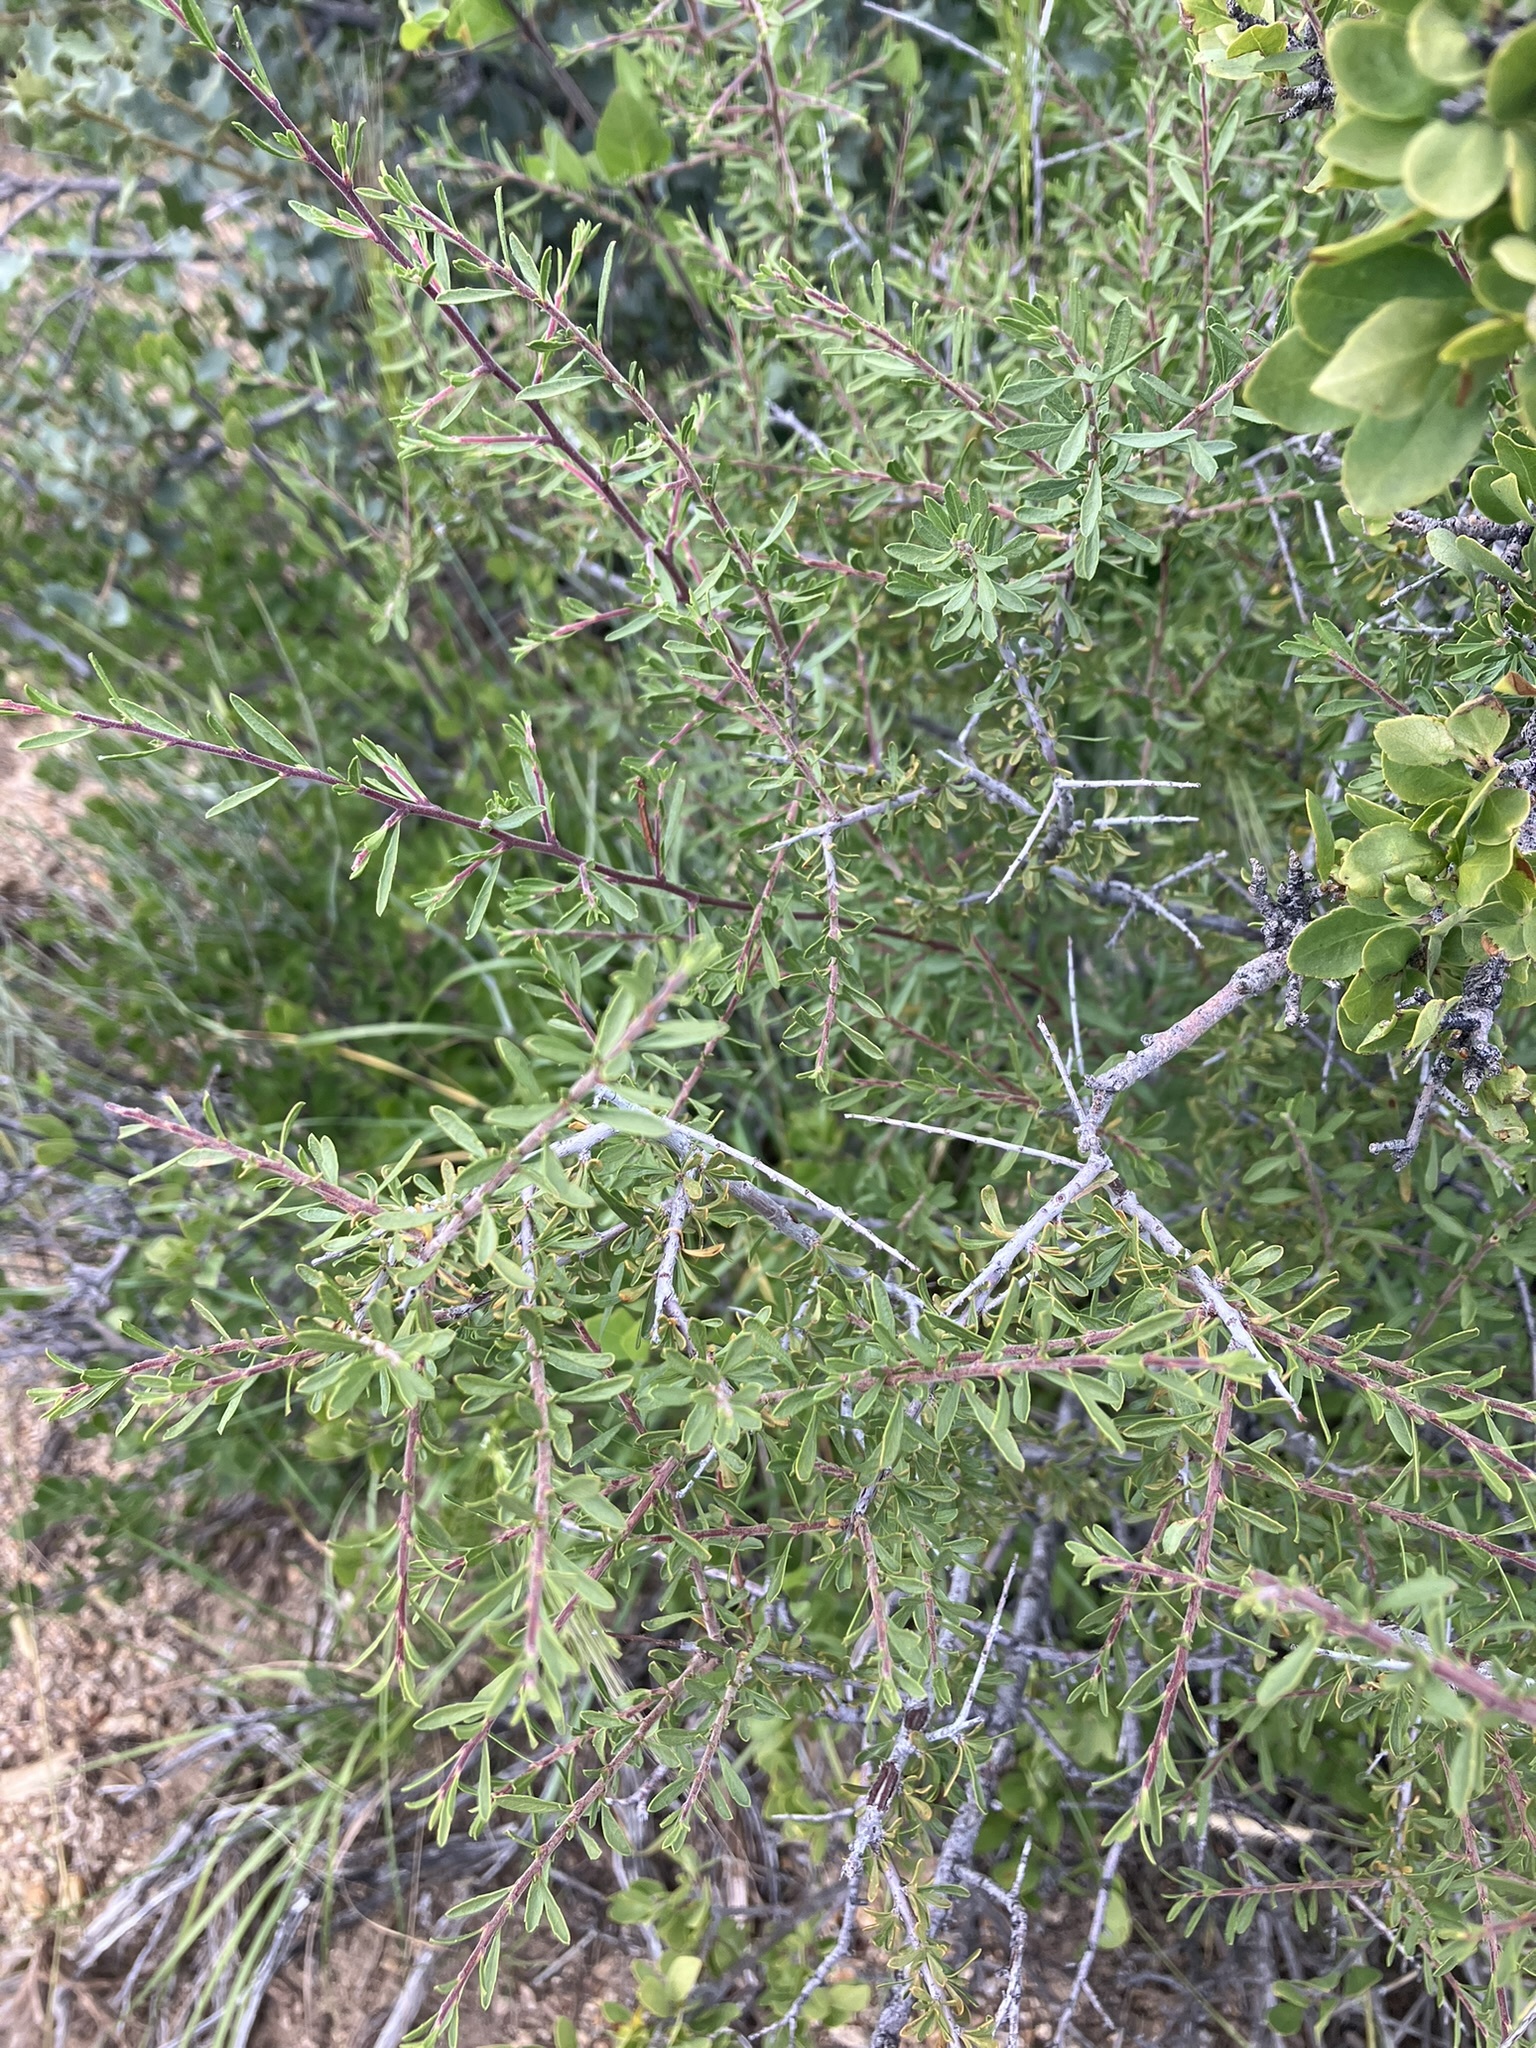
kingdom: Plantae
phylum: Tracheophyta
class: Magnoliopsida
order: Rosales
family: Rosaceae
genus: Prunus
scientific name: Prunus fasciculata
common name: Desert almond
